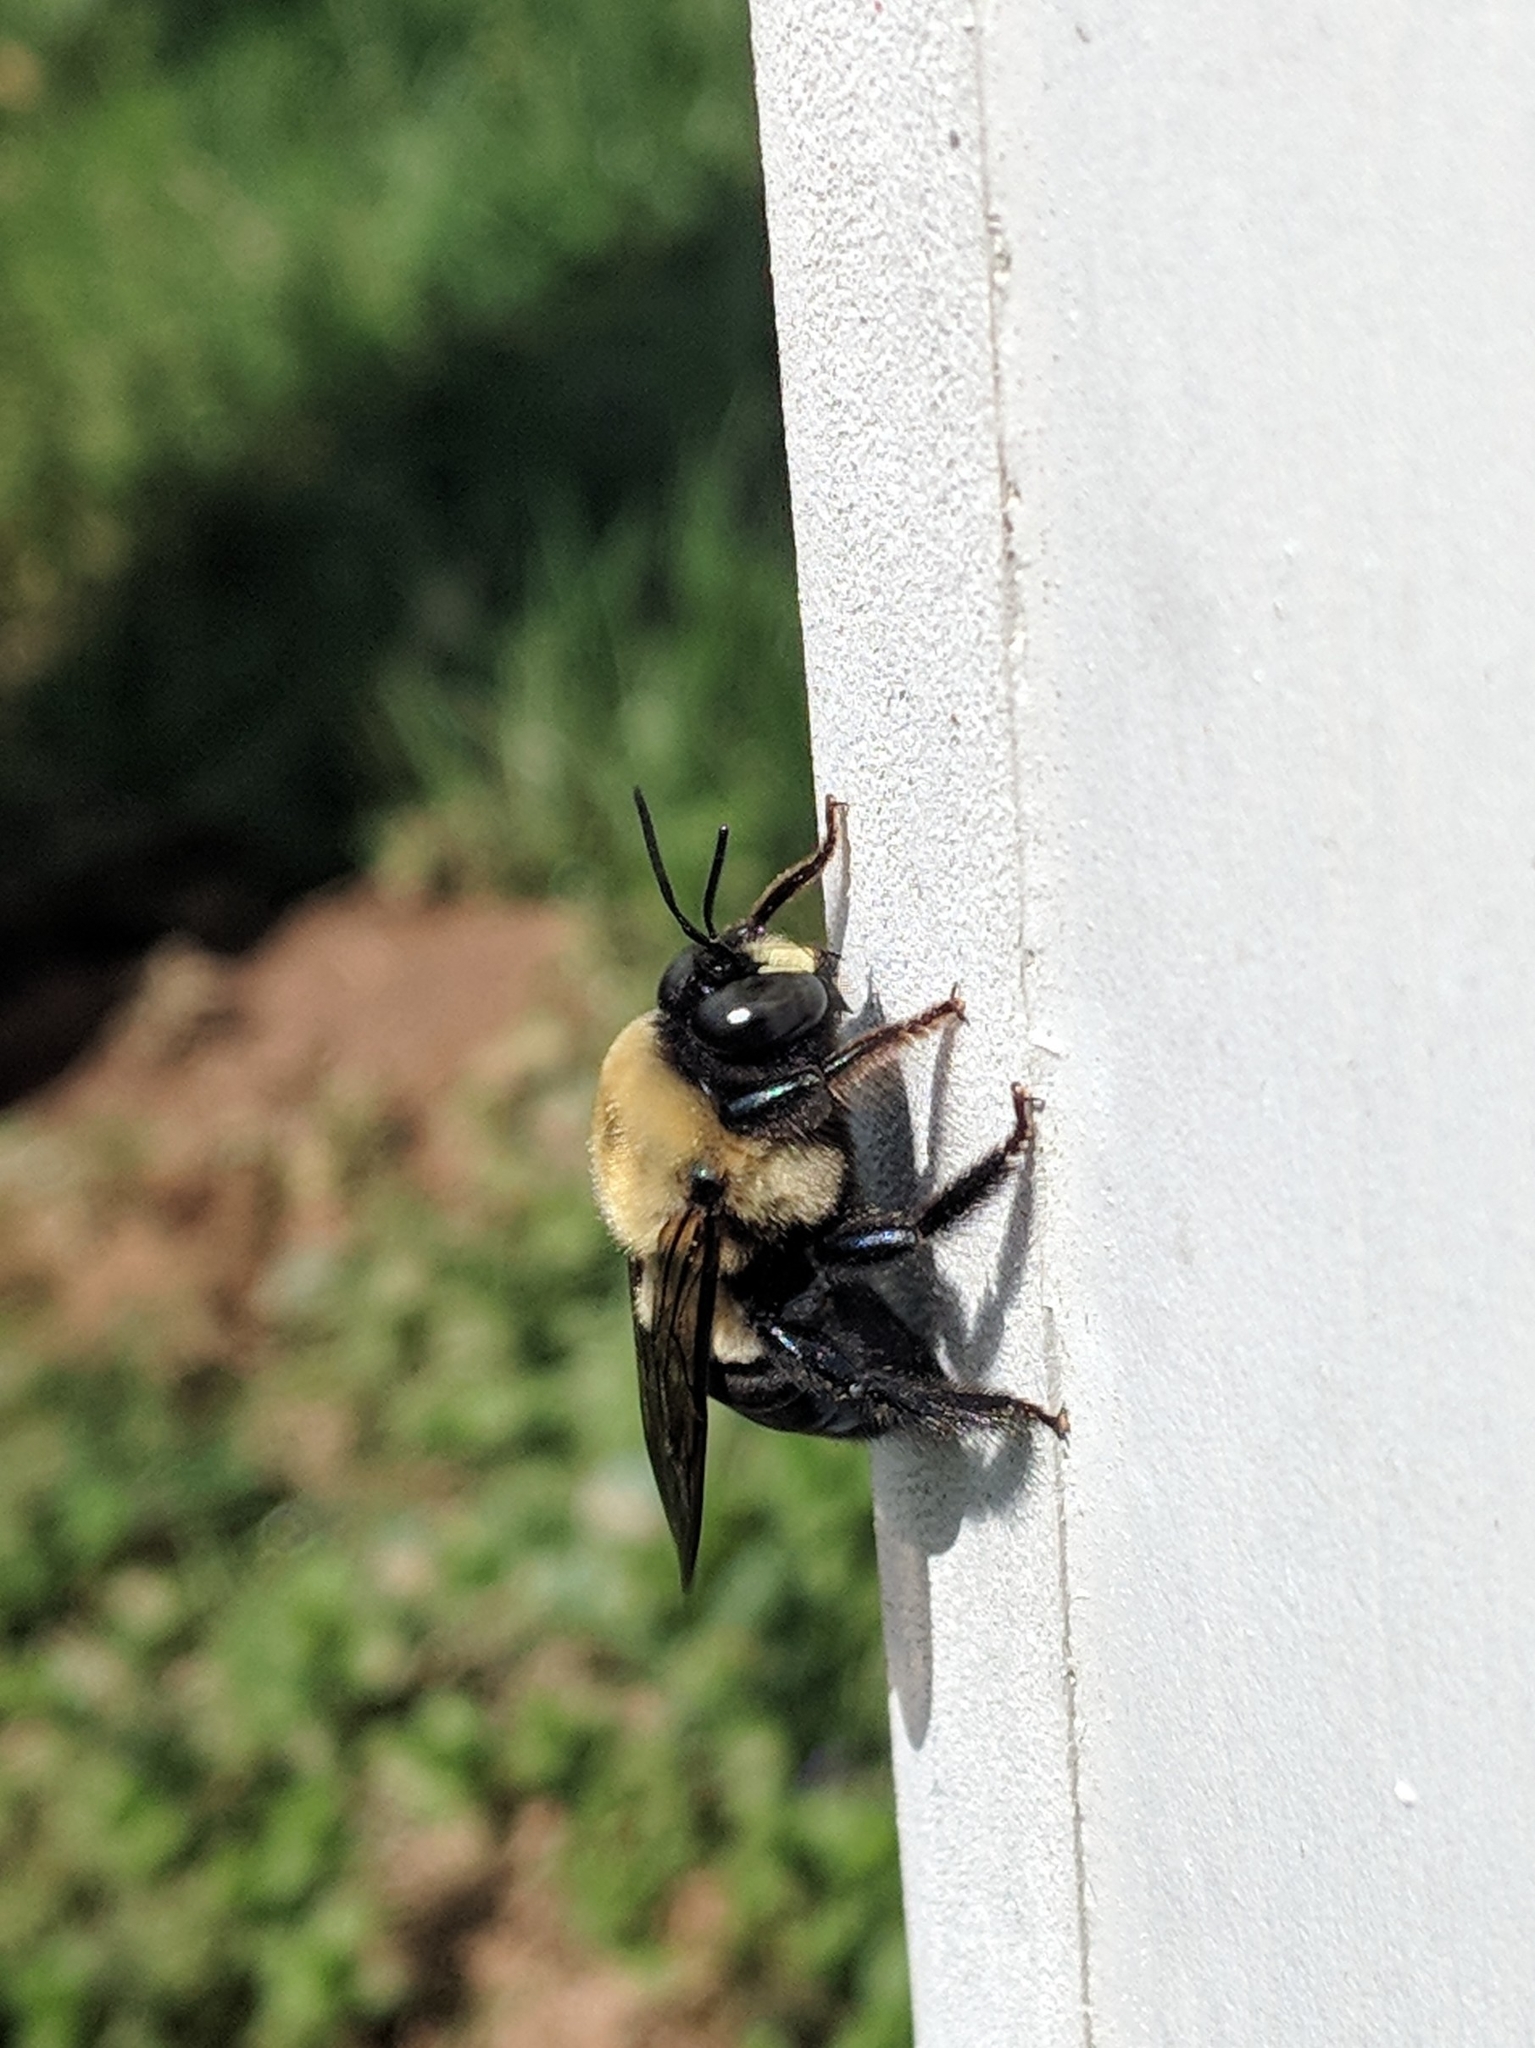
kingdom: Animalia
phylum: Arthropoda
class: Insecta
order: Hymenoptera
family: Apidae
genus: Xylocopa
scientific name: Xylocopa virginica
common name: Carpenter bee
